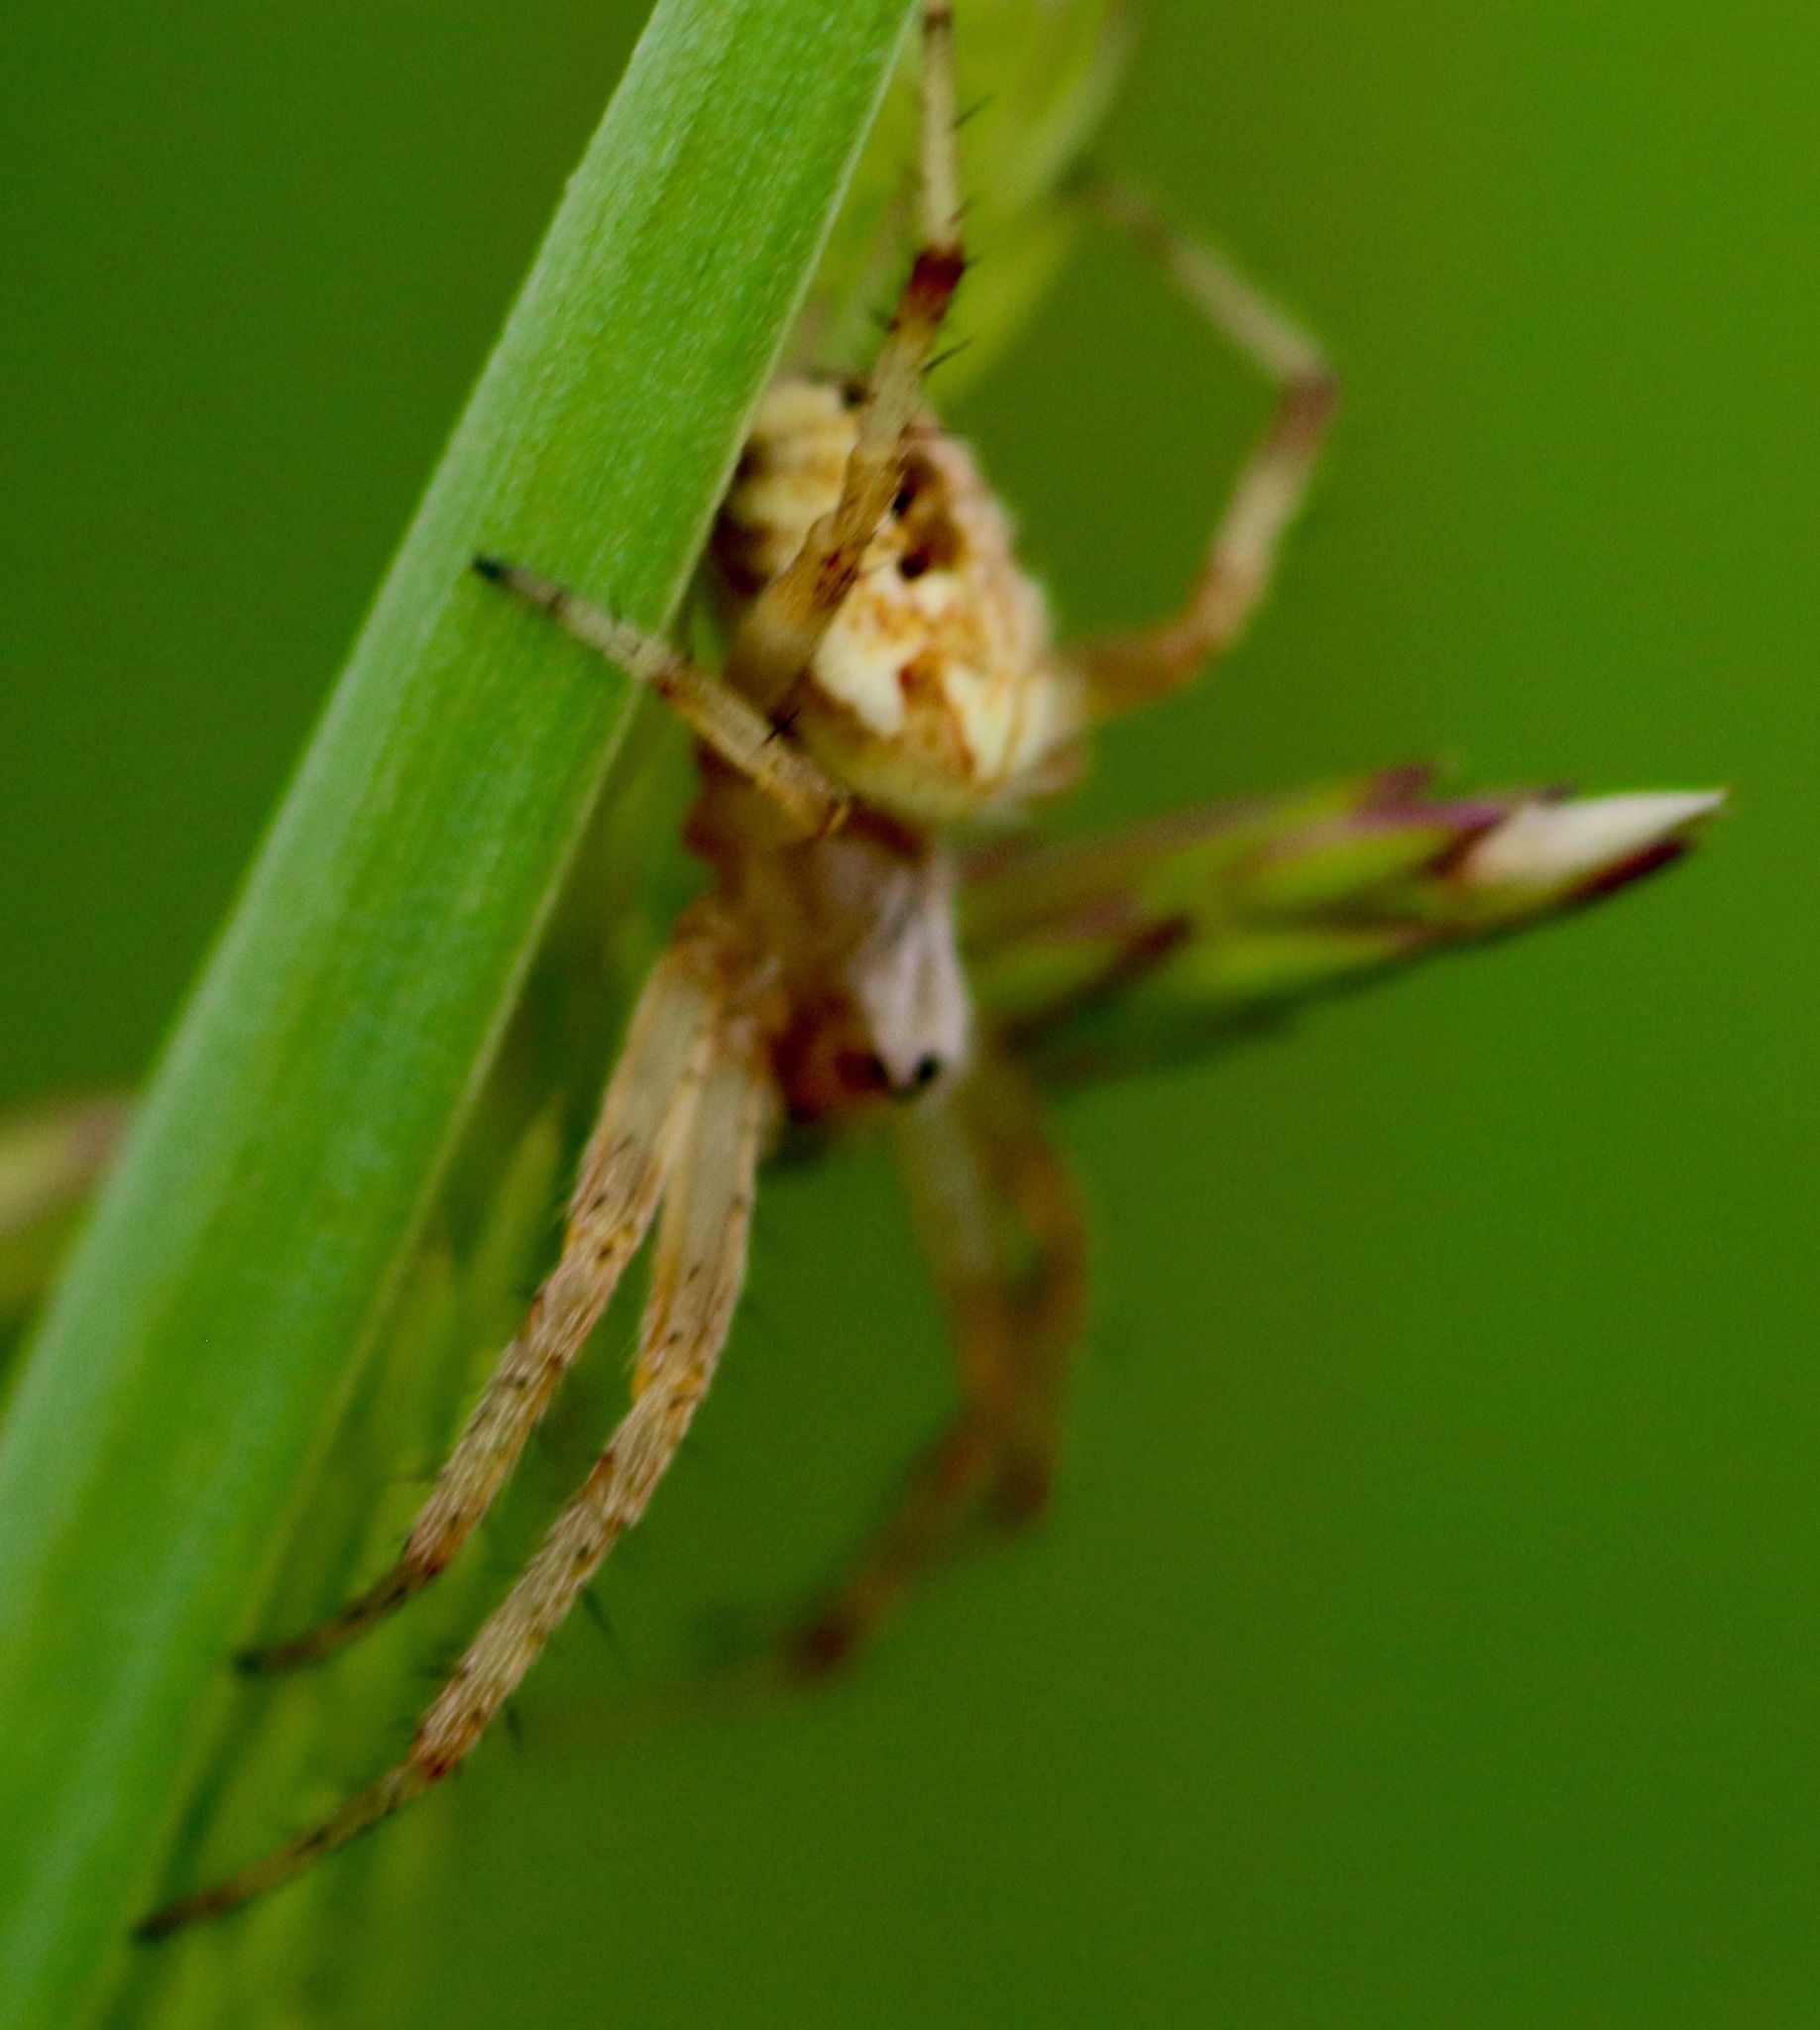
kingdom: Animalia
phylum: Arthropoda
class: Arachnida
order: Araneae
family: Araneidae
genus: Neoscona
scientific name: Neoscona arabesca
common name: Orb weavers
